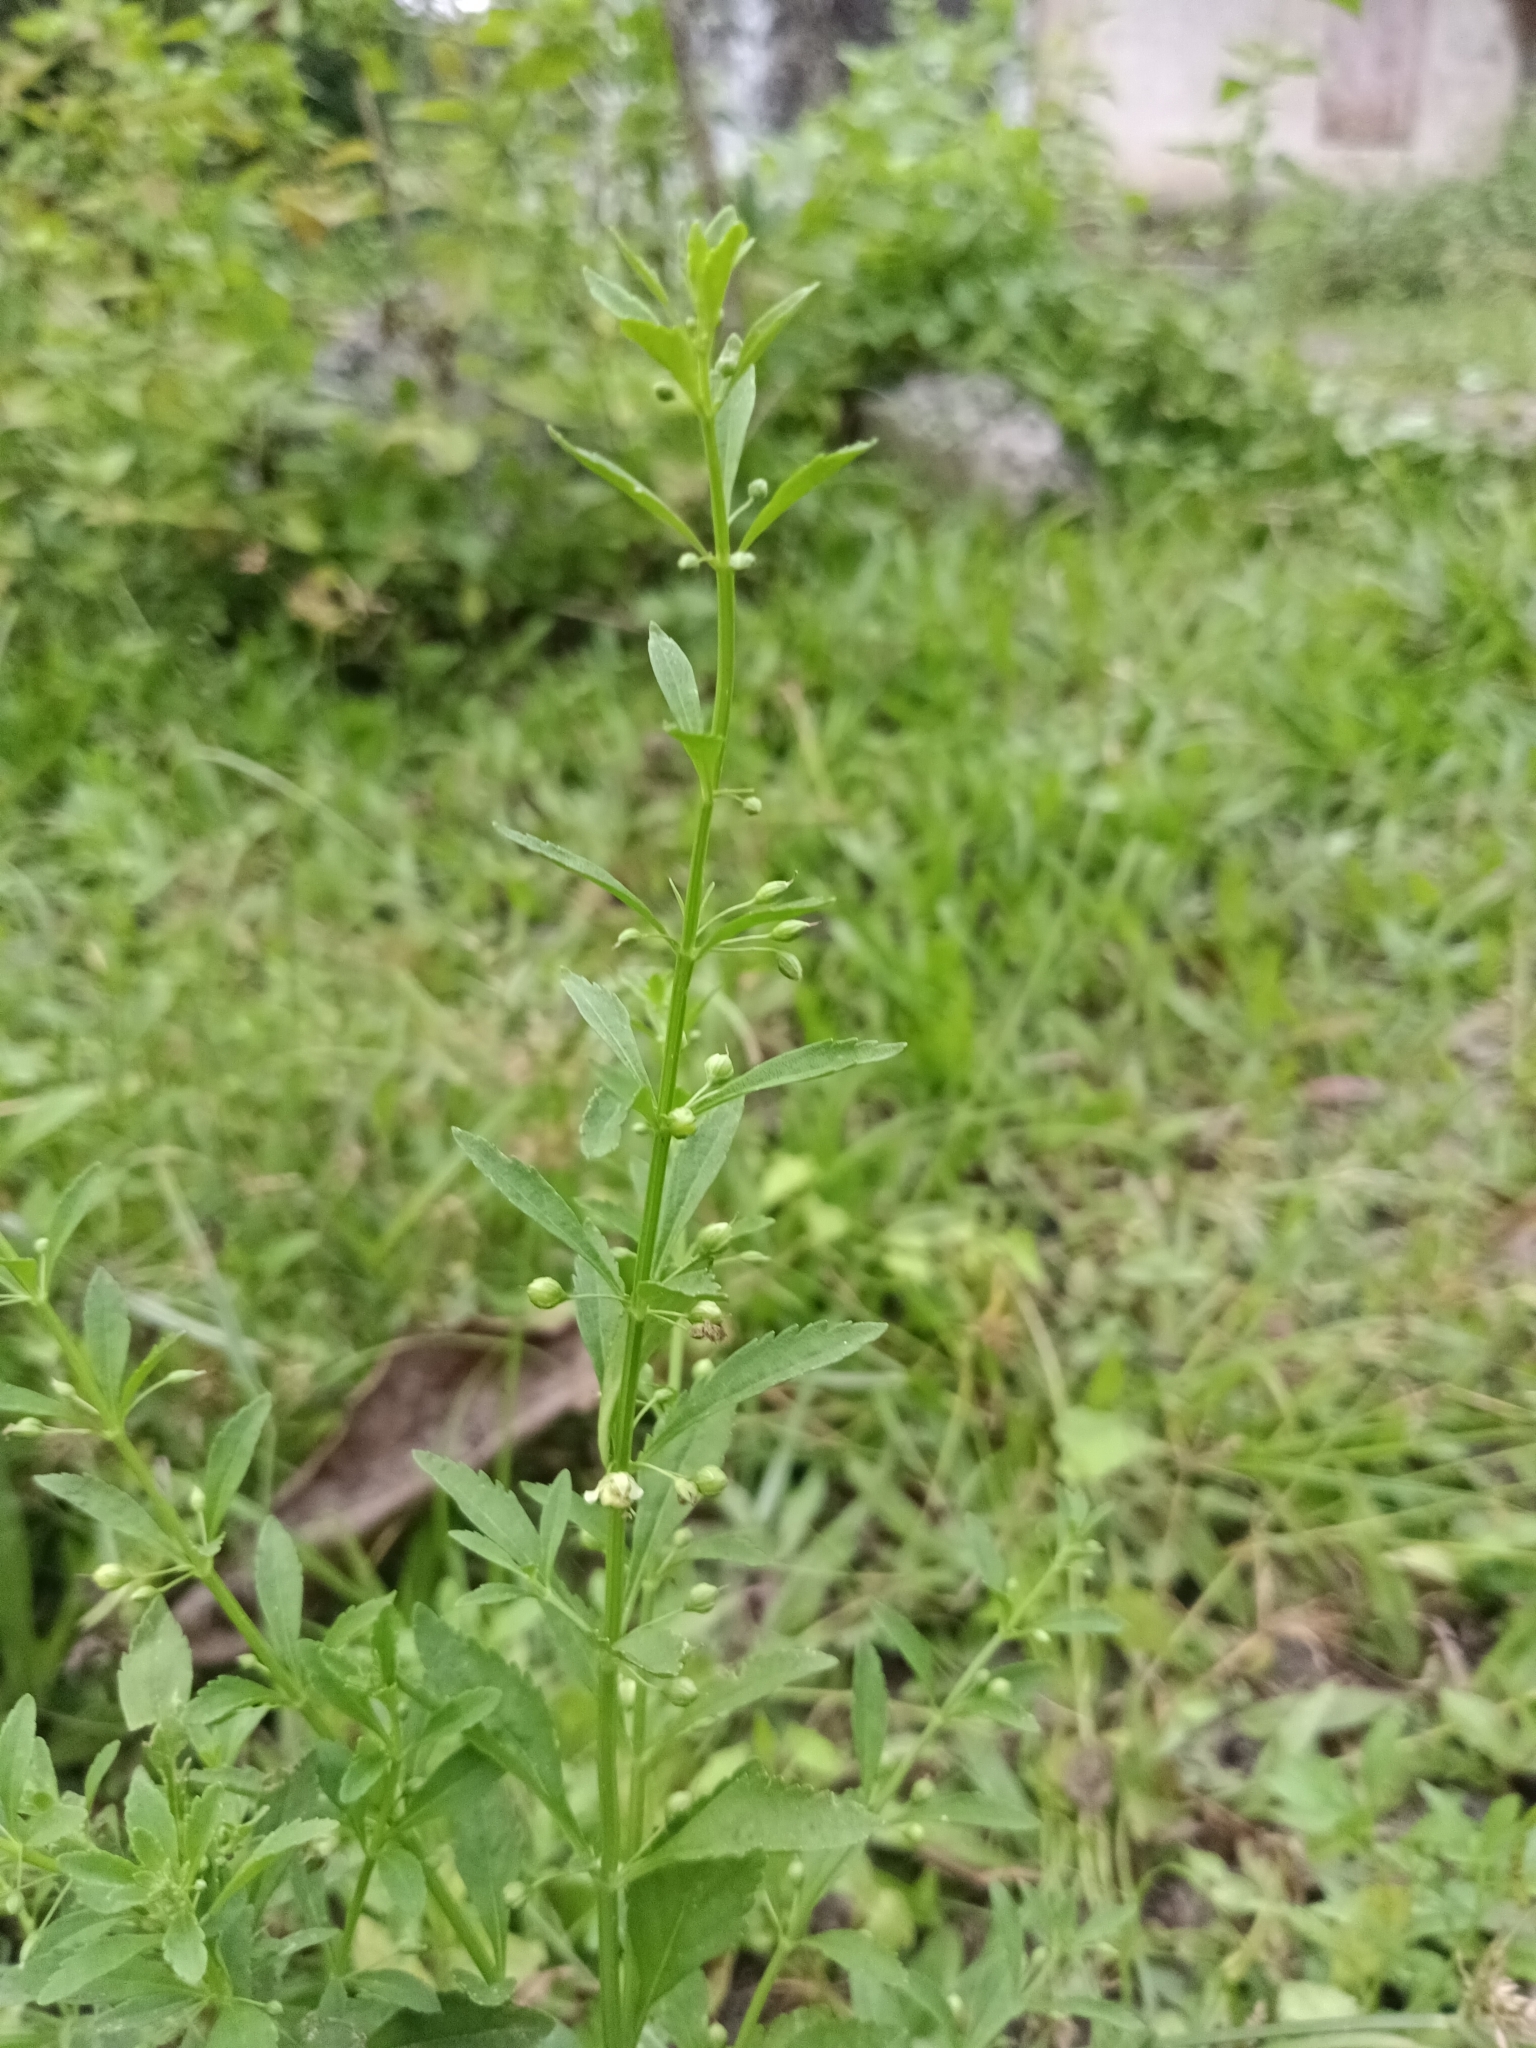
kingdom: Plantae
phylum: Tracheophyta
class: Magnoliopsida
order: Lamiales
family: Plantaginaceae
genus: Scoparia
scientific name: Scoparia dulcis
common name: Scoparia-weed
